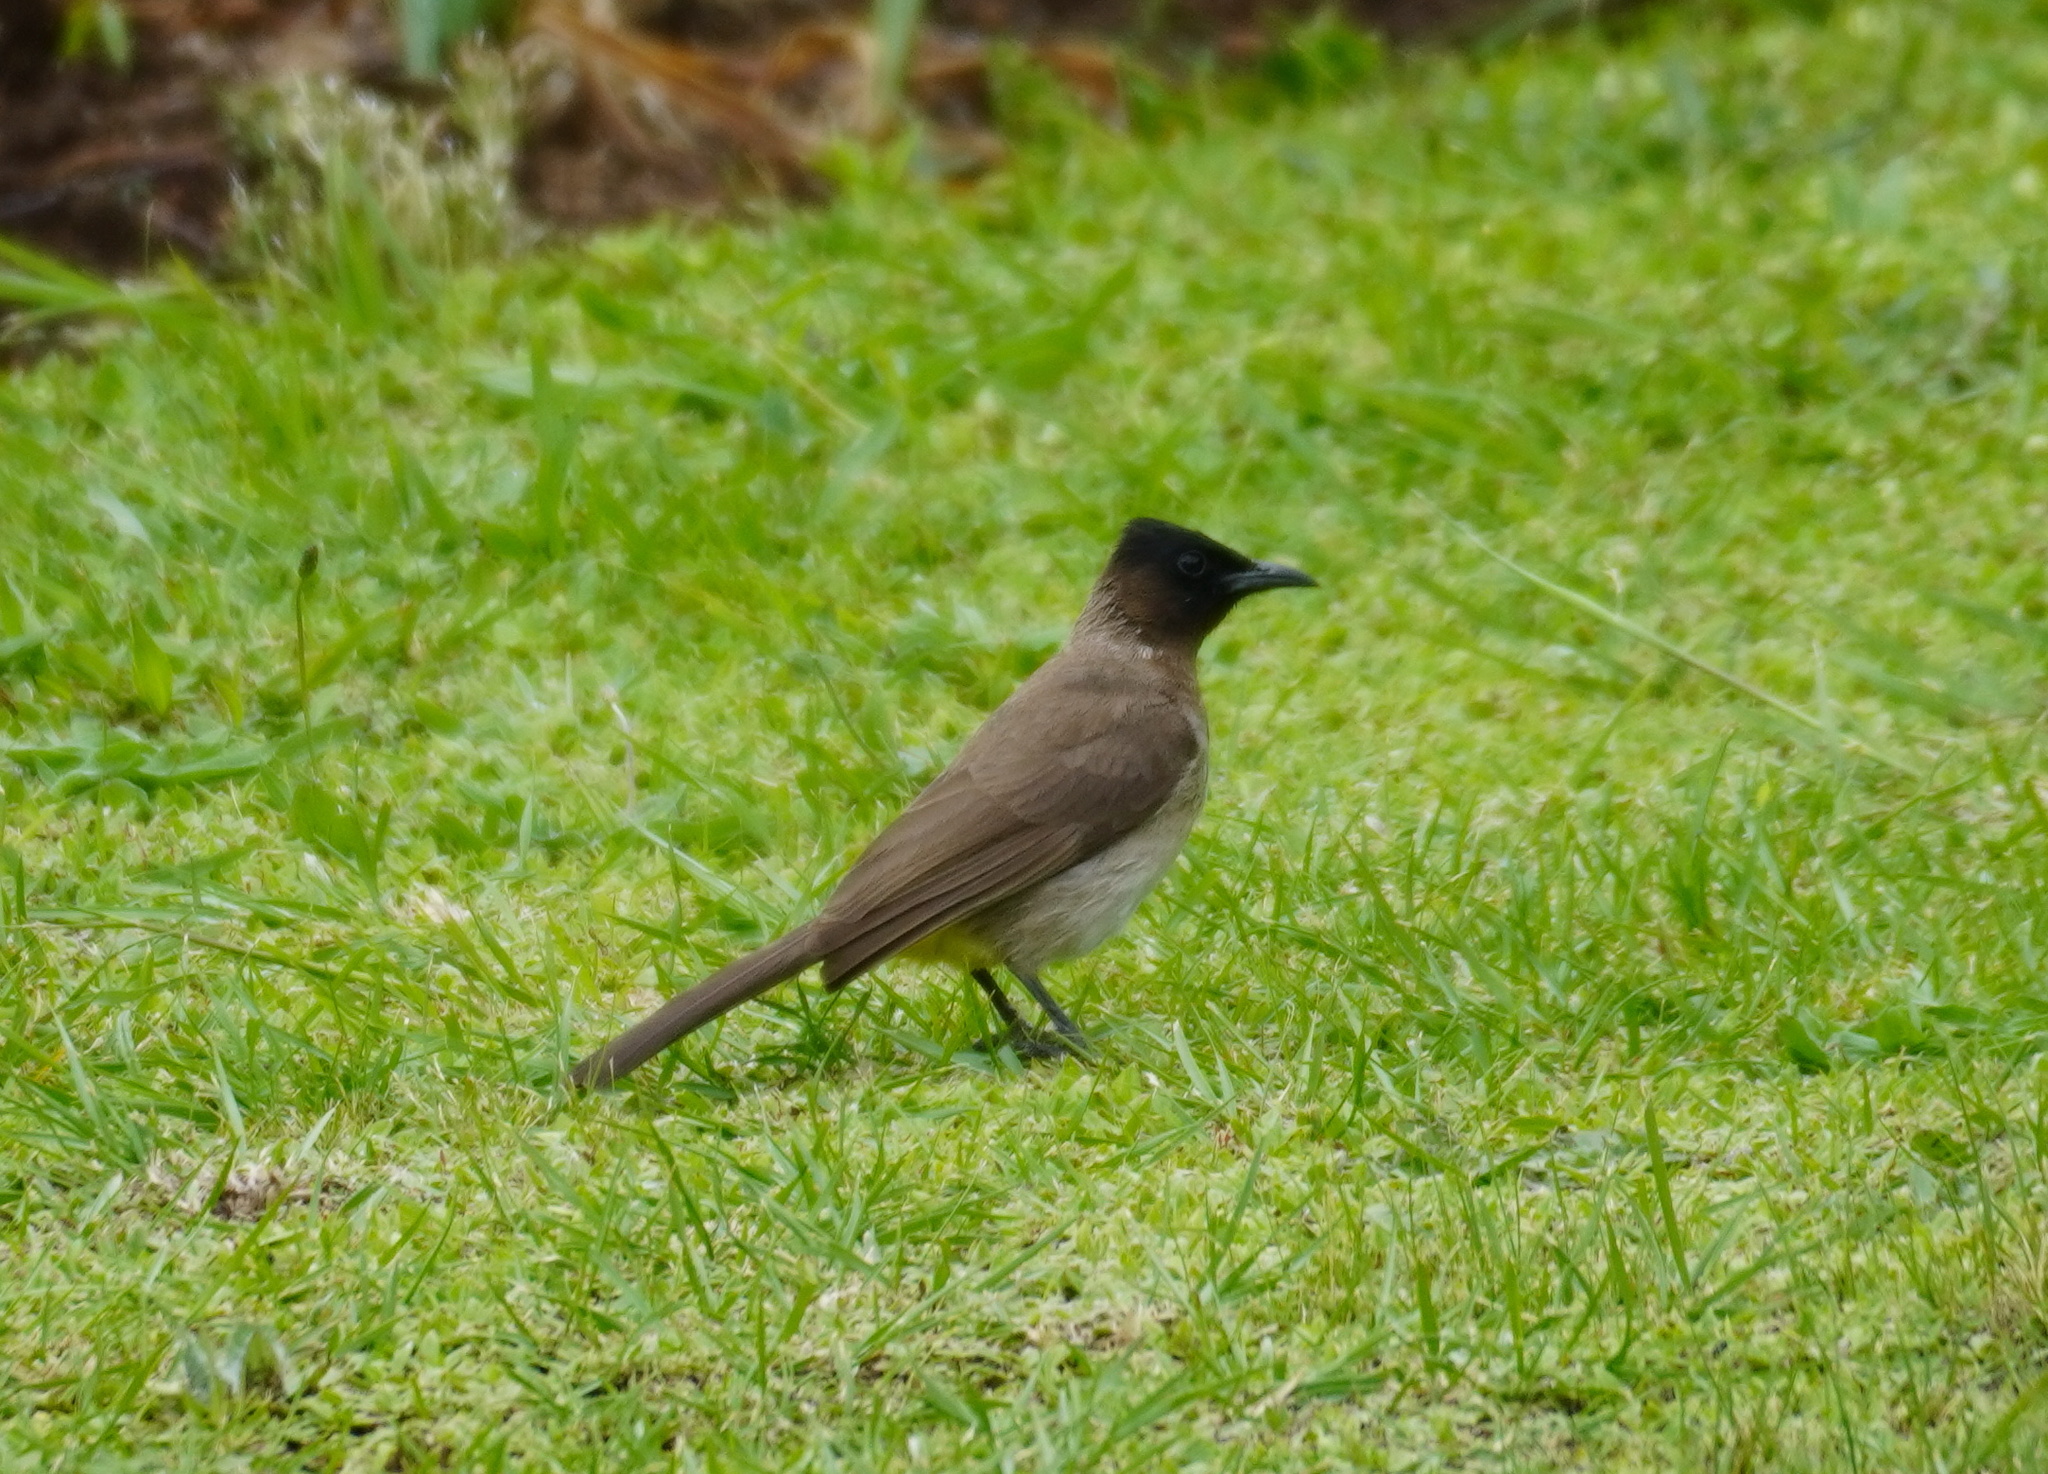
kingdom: Animalia
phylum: Chordata
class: Aves
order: Passeriformes
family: Pycnonotidae
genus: Pycnonotus
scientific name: Pycnonotus barbatus
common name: Common bulbul
